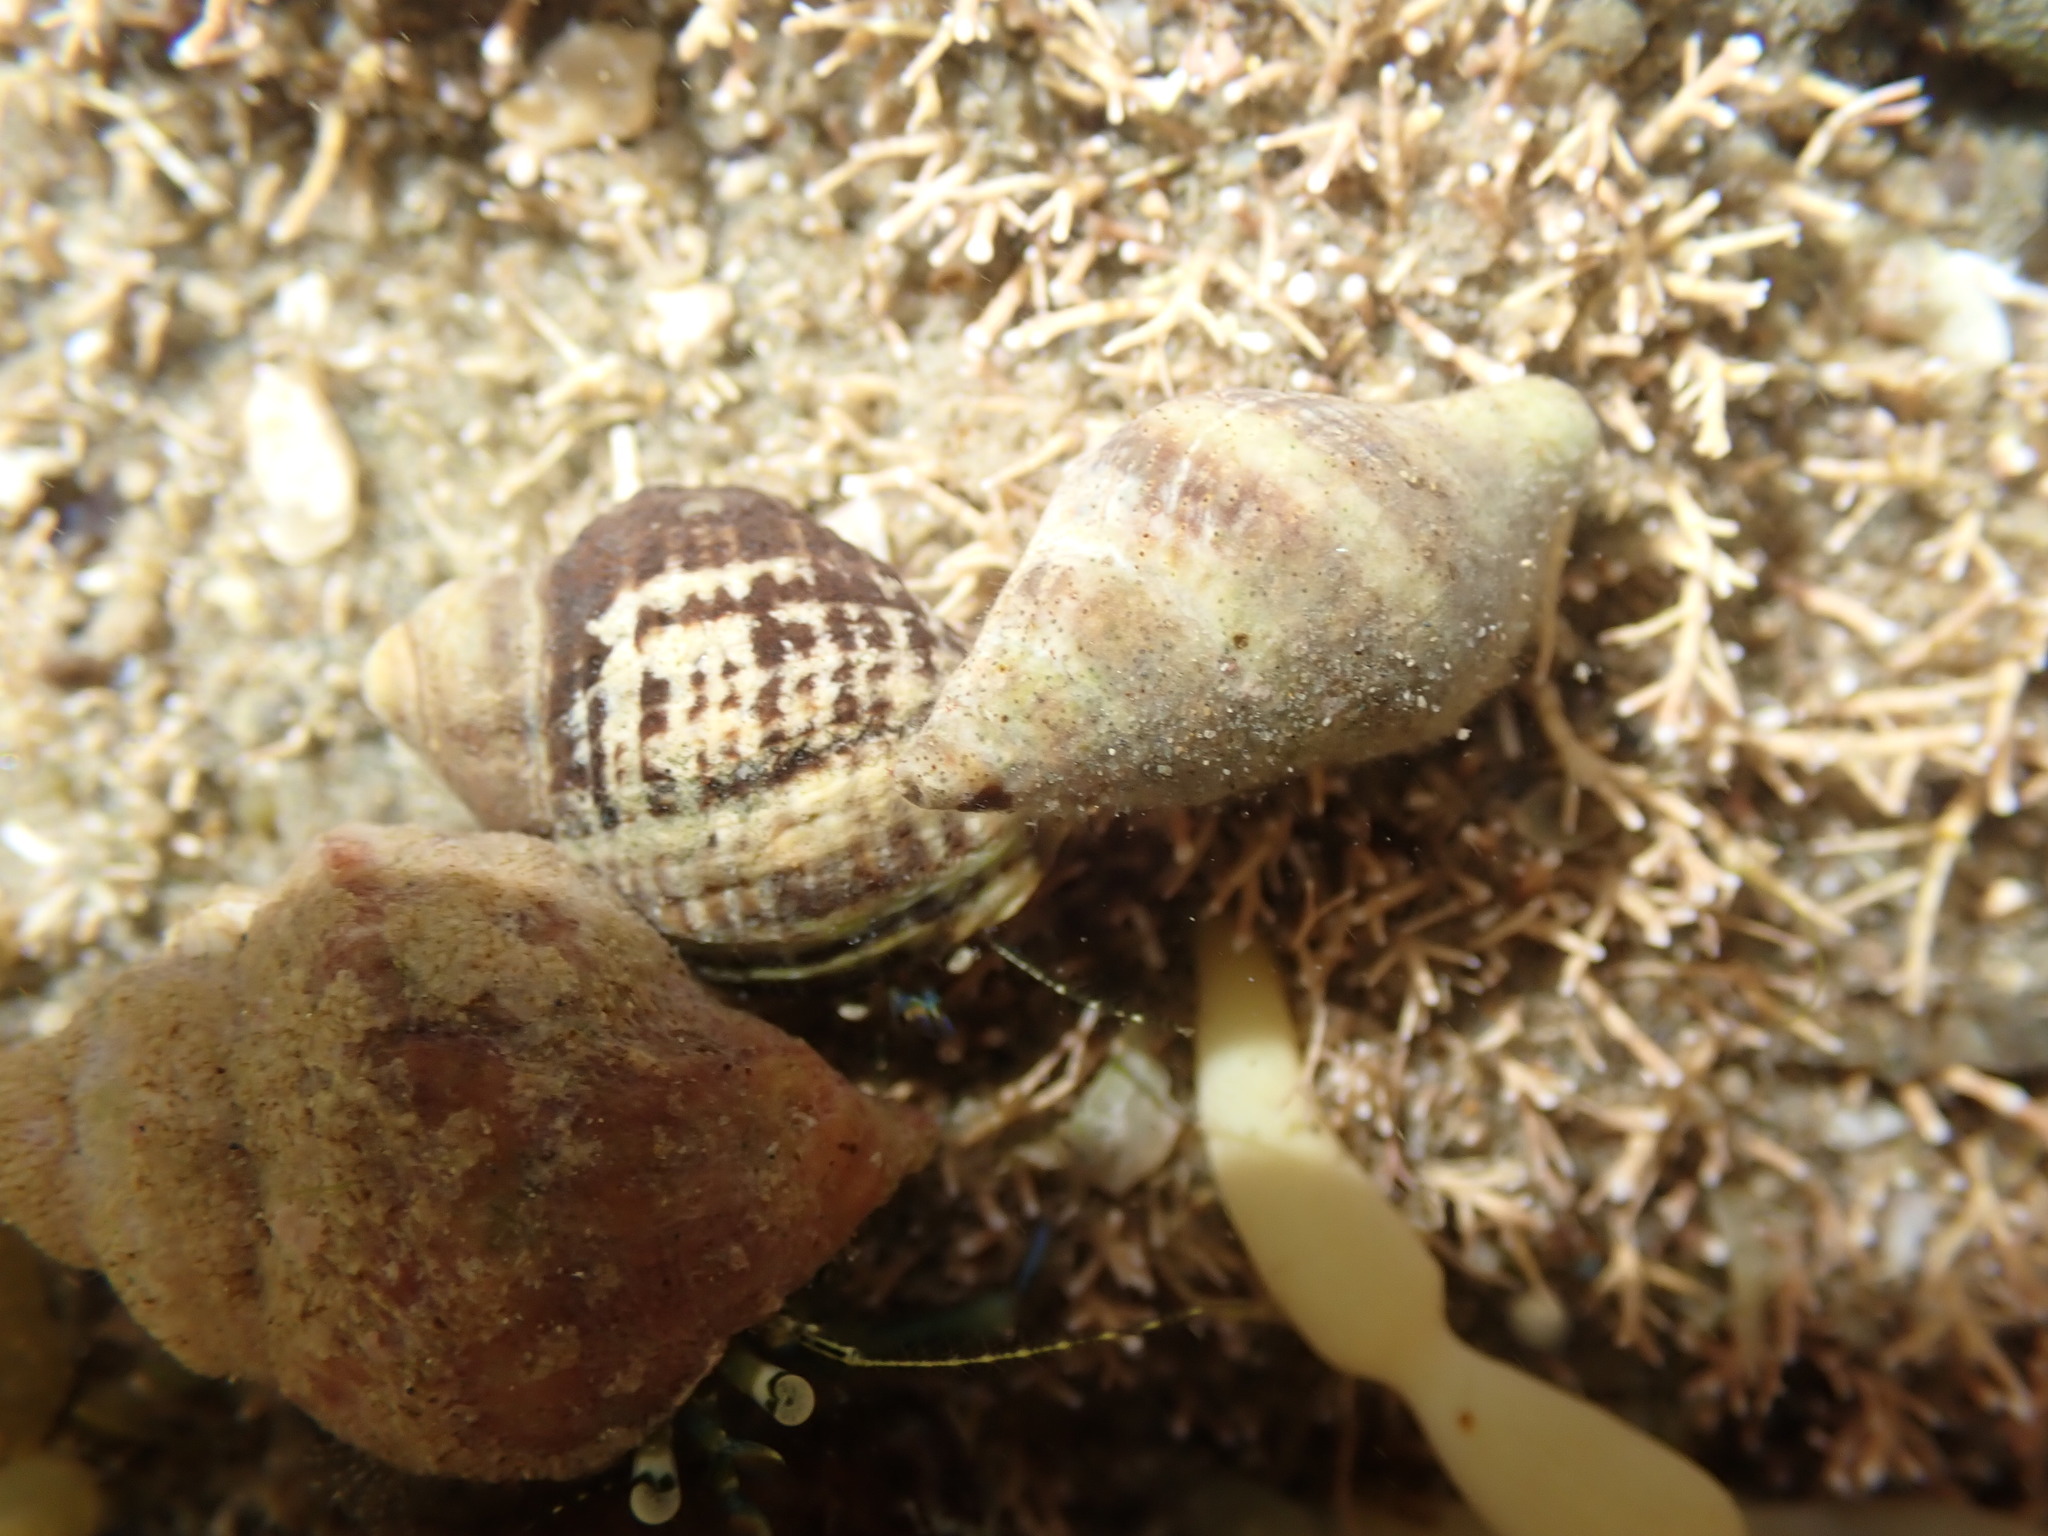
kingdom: Animalia
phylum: Mollusca
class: Gastropoda
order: Neogastropoda
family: Tudiclidae
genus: Buccinulum
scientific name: Buccinulum vittatum
